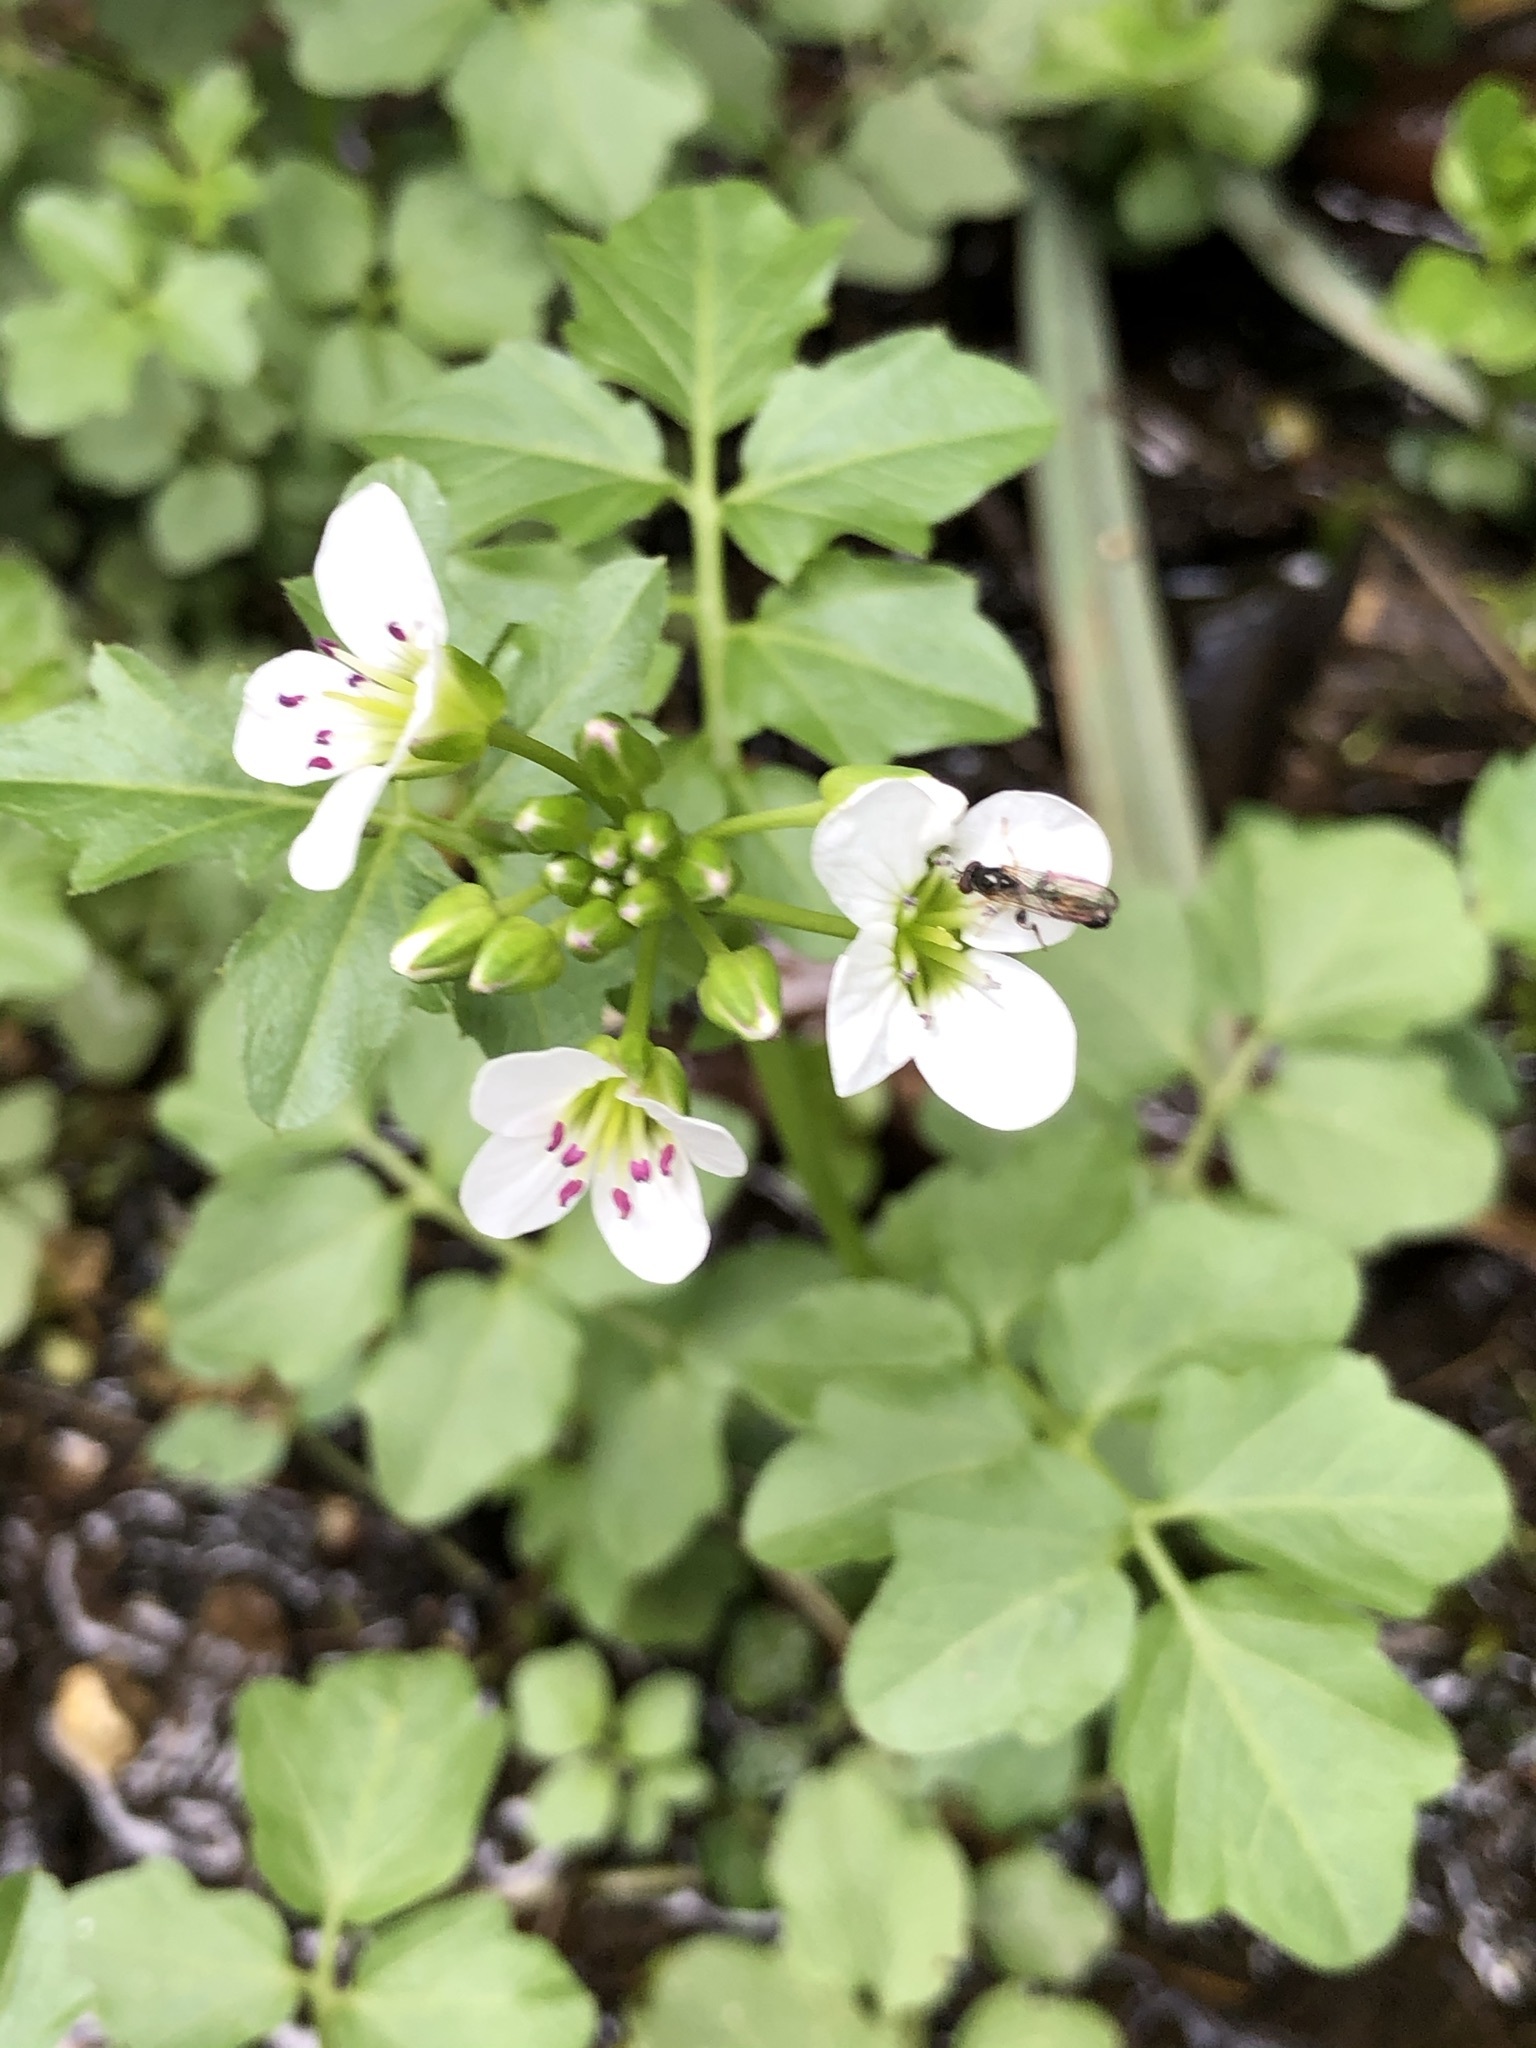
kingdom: Plantae
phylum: Tracheophyta
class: Magnoliopsida
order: Brassicales
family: Brassicaceae
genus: Cardamine
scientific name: Cardamine amara
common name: Large bitter-cress
